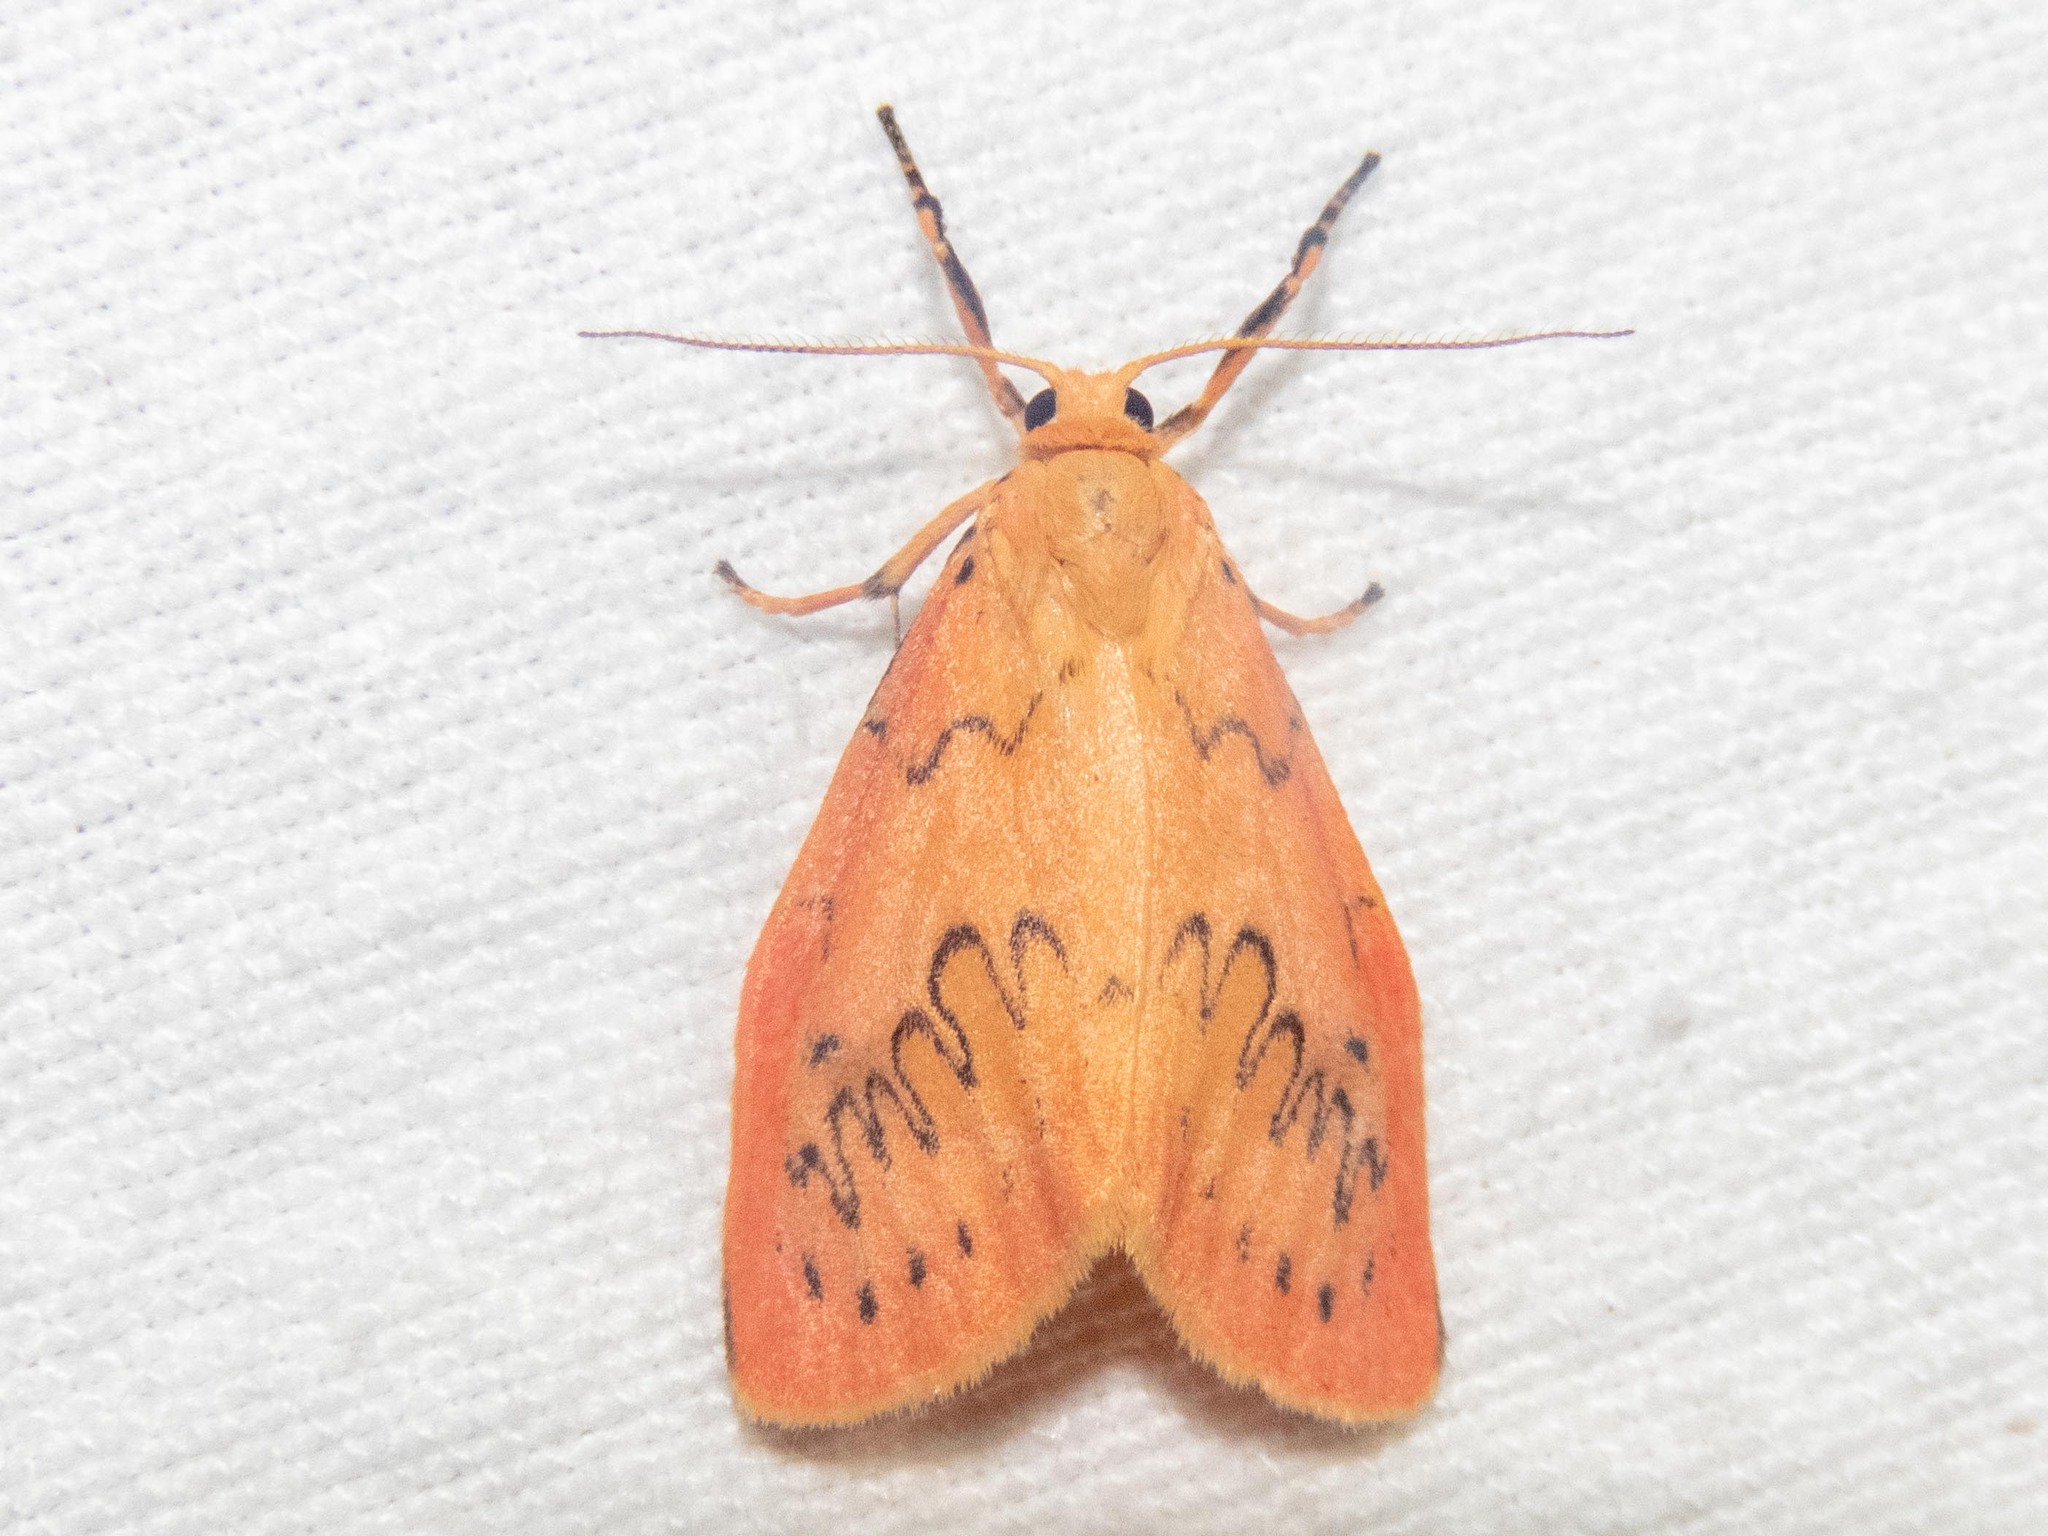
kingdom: Animalia
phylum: Arthropoda
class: Insecta
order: Lepidoptera
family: Erebidae
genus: Miltochrista
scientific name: Miltochrista miniata
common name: Rosy footman
